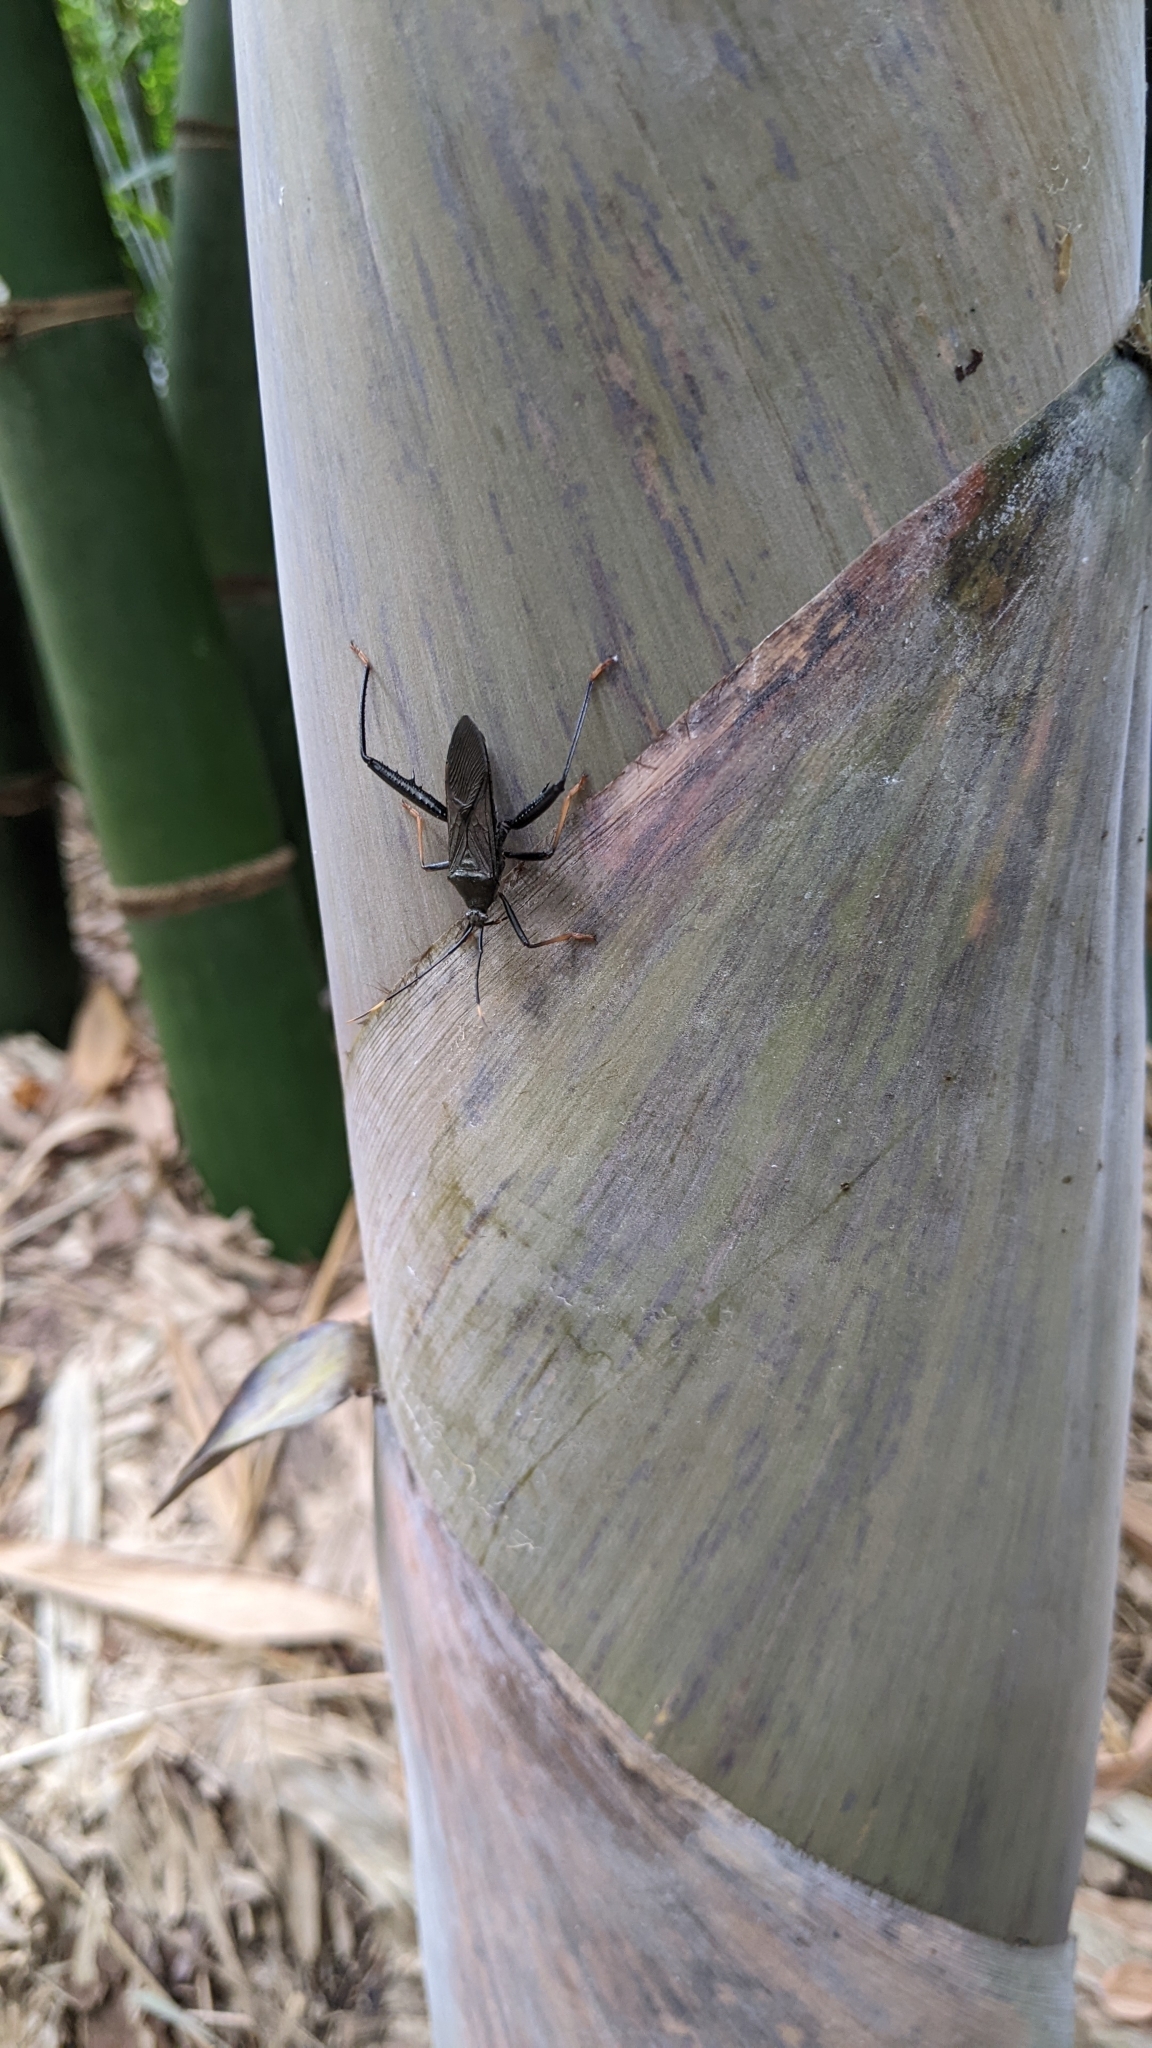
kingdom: Animalia
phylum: Arthropoda
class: Insecta
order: Hemiptera
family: Coreidae
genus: Notobitus
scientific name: Notobitus meleagris
